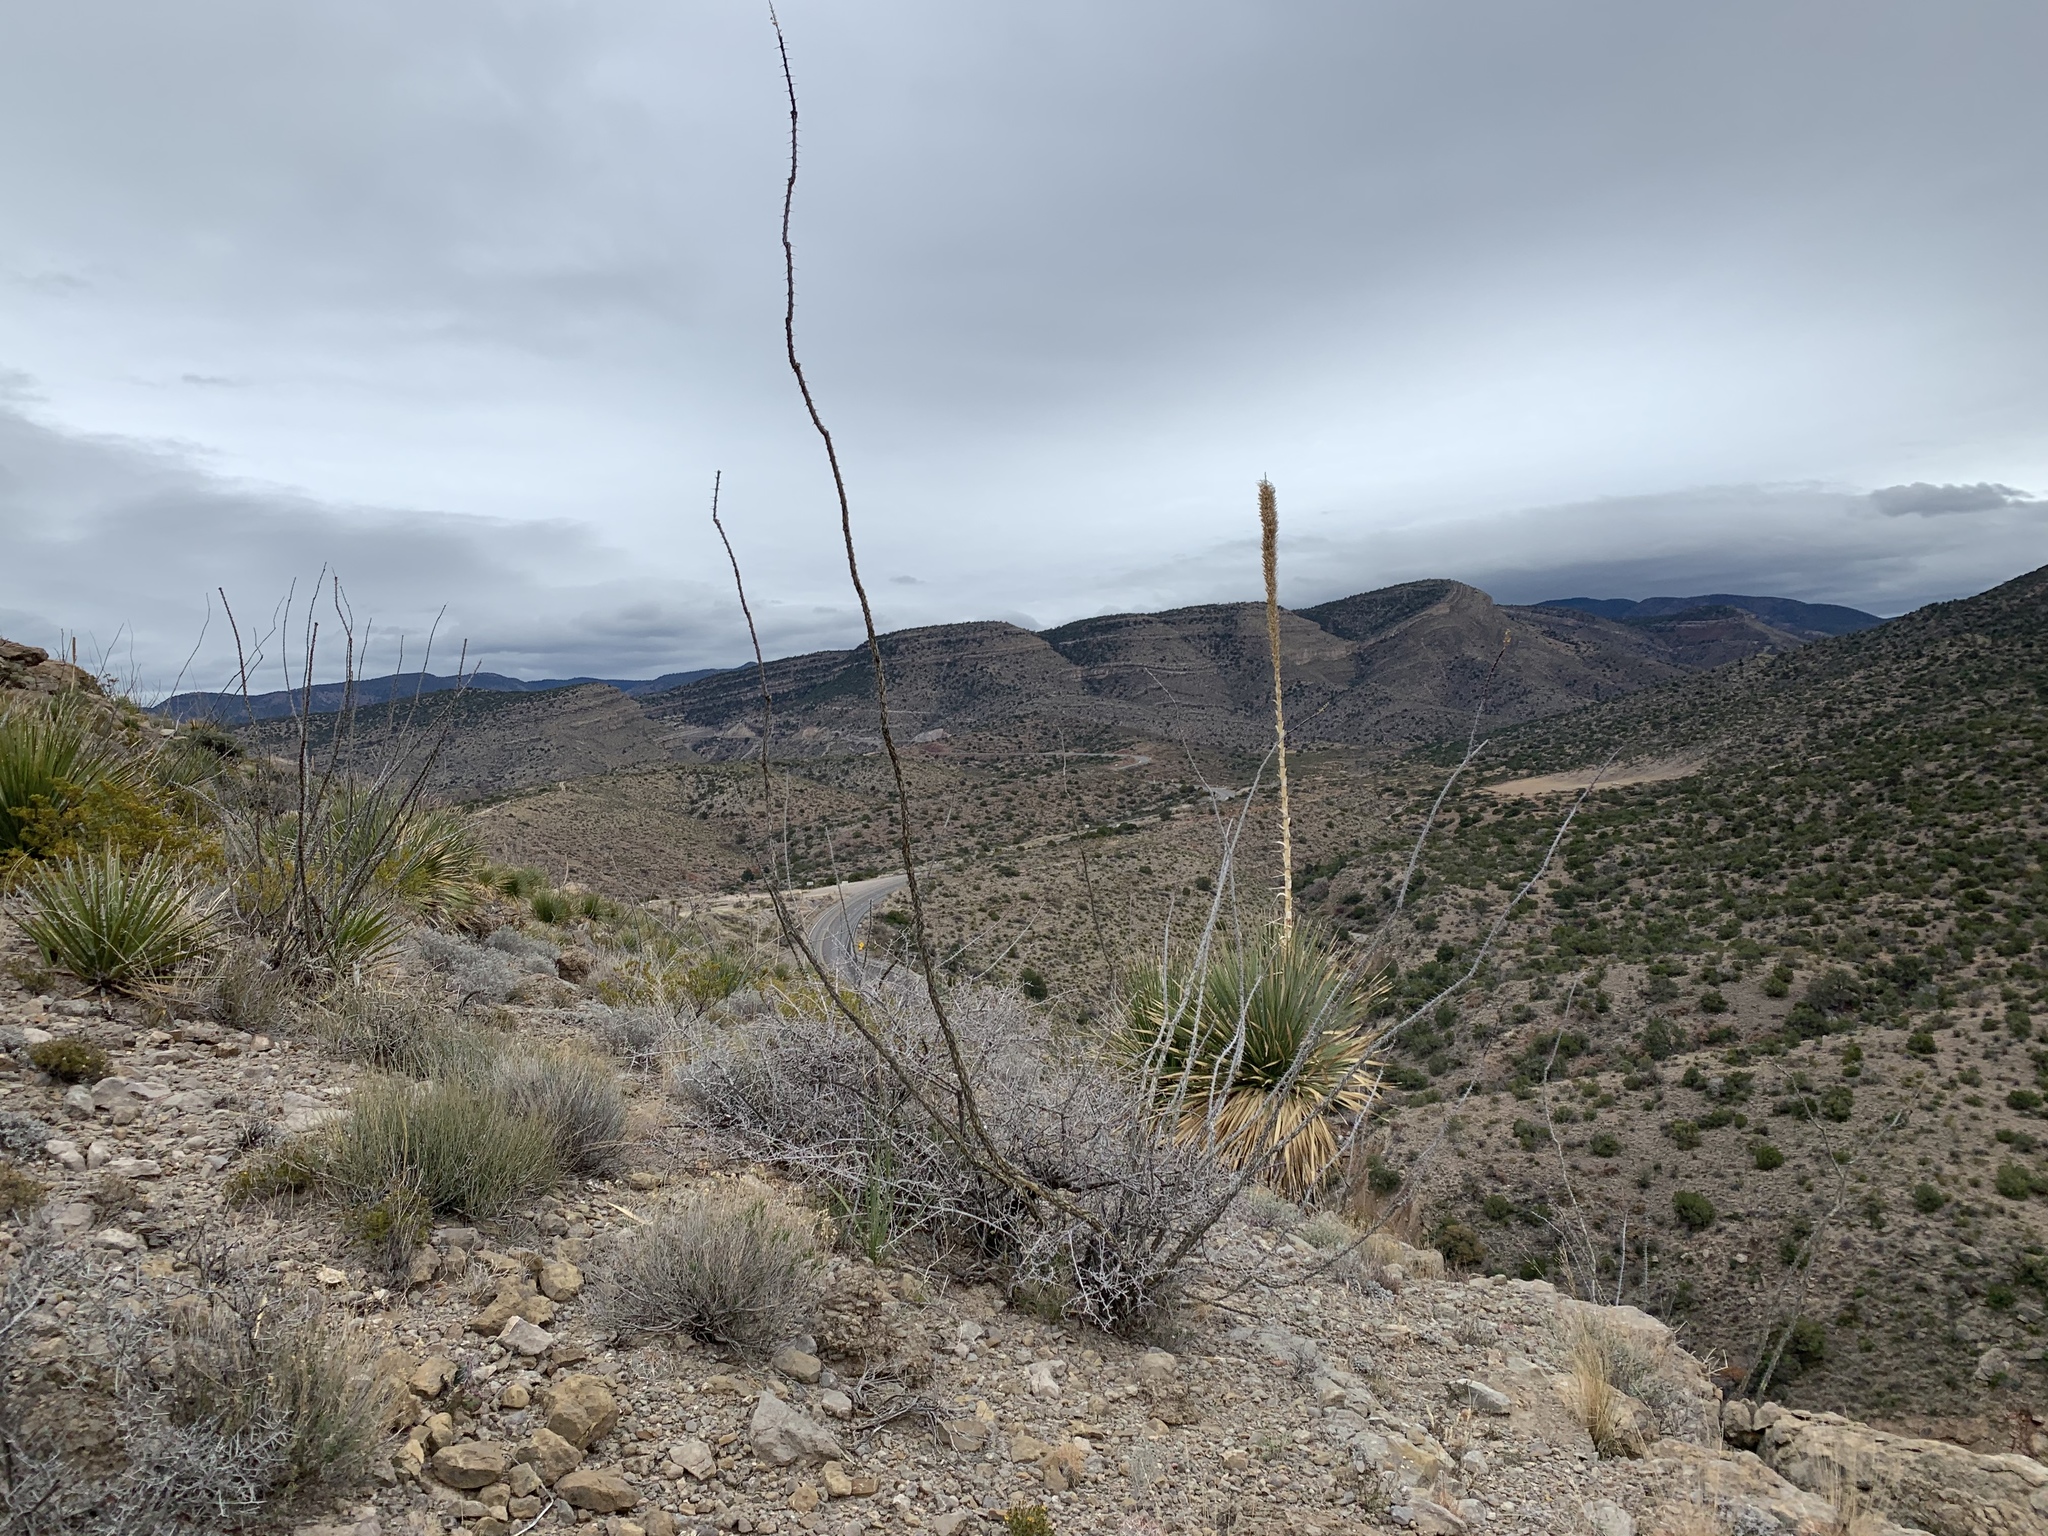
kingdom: Plantae
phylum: Tracheophyta
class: Magnoliopsida
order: Ericales
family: Fouquieriaceae
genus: Fouquieria
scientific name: Fouquieria splendens
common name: Vine-cactus
